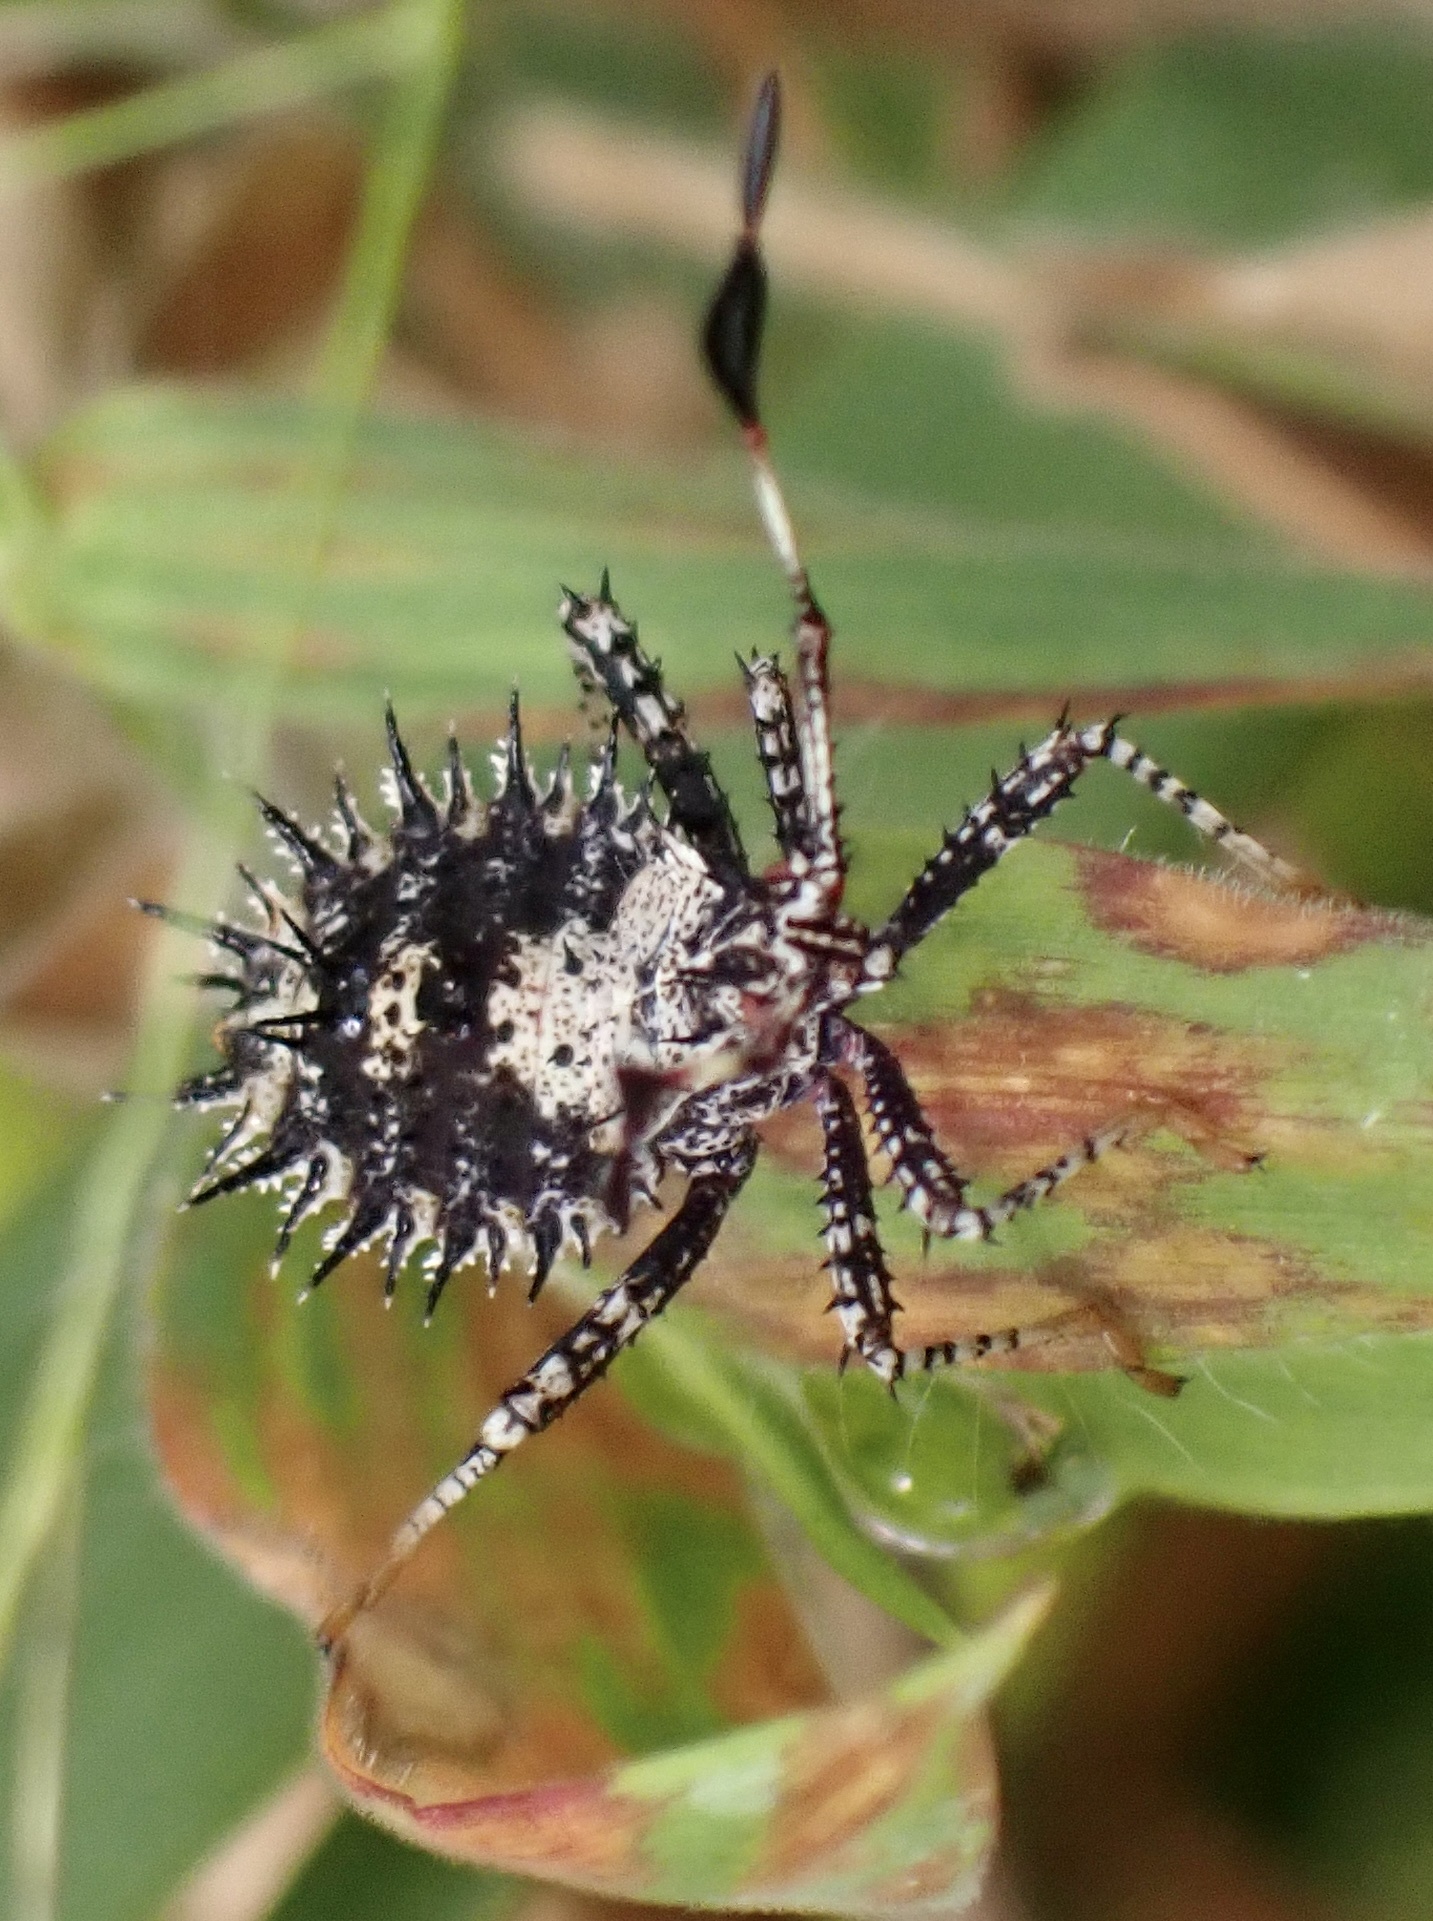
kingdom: Animalia
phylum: Arthropoda
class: Insecta
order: Hemiptera
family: Coreidae
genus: Euthochtha
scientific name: Euthochtha galeator
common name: Helmeted squash bug
